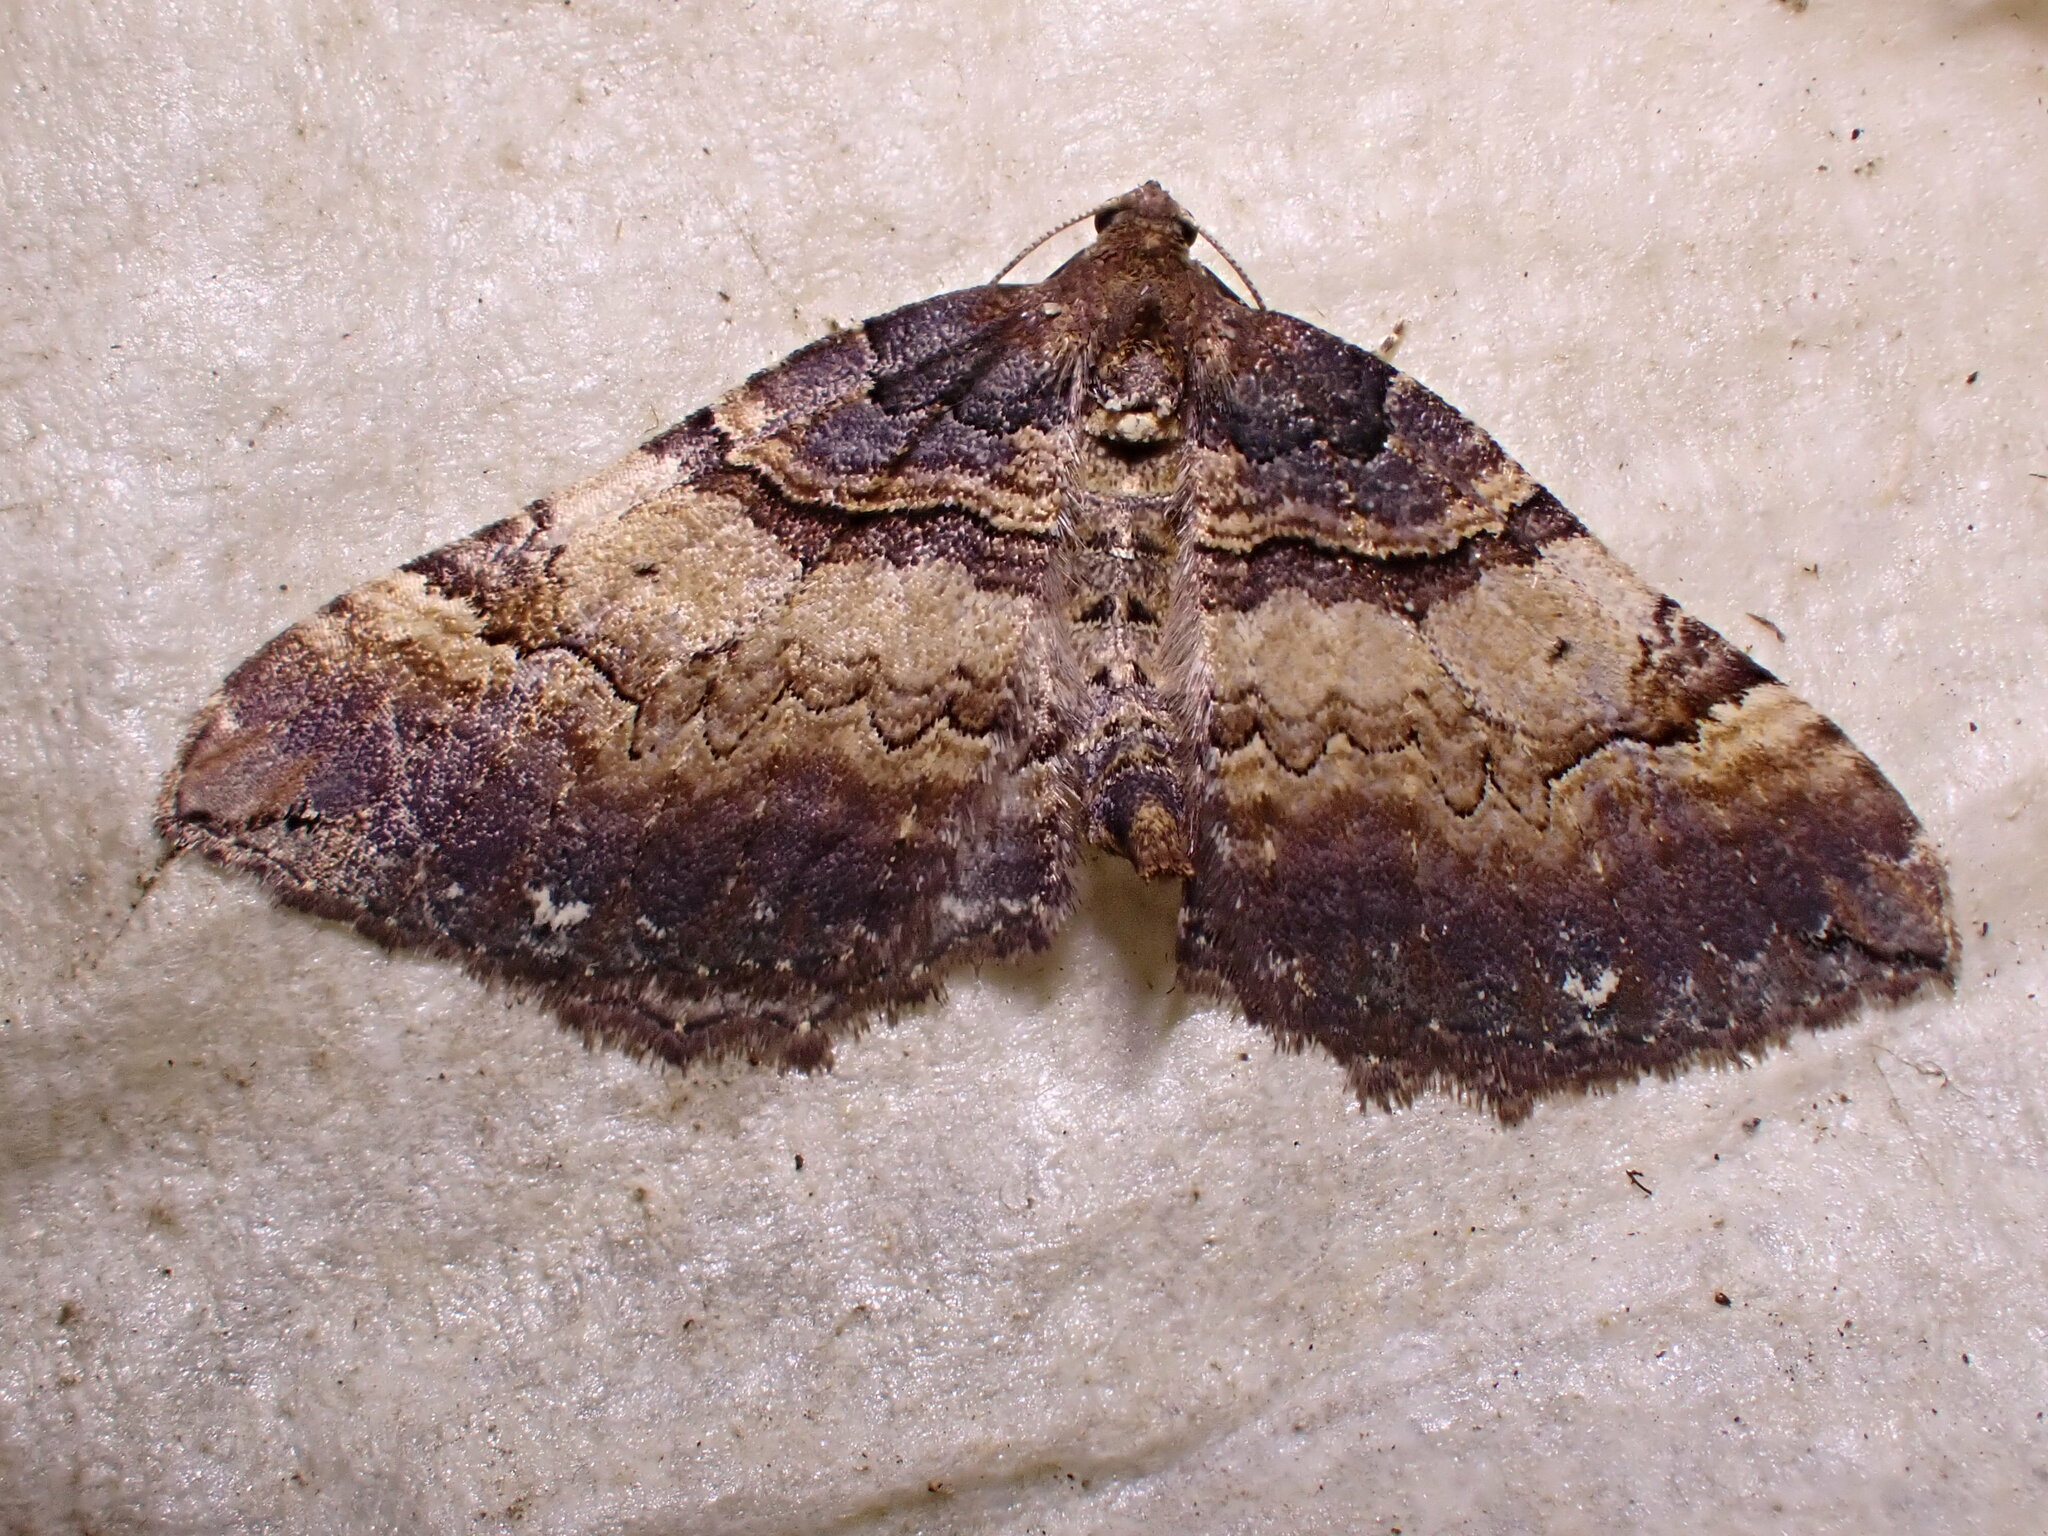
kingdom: Animalia
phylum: Arthropoda
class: Insecta
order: Lepidoptera
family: Geometridae
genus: Anticlea
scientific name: Anticlea badiata
